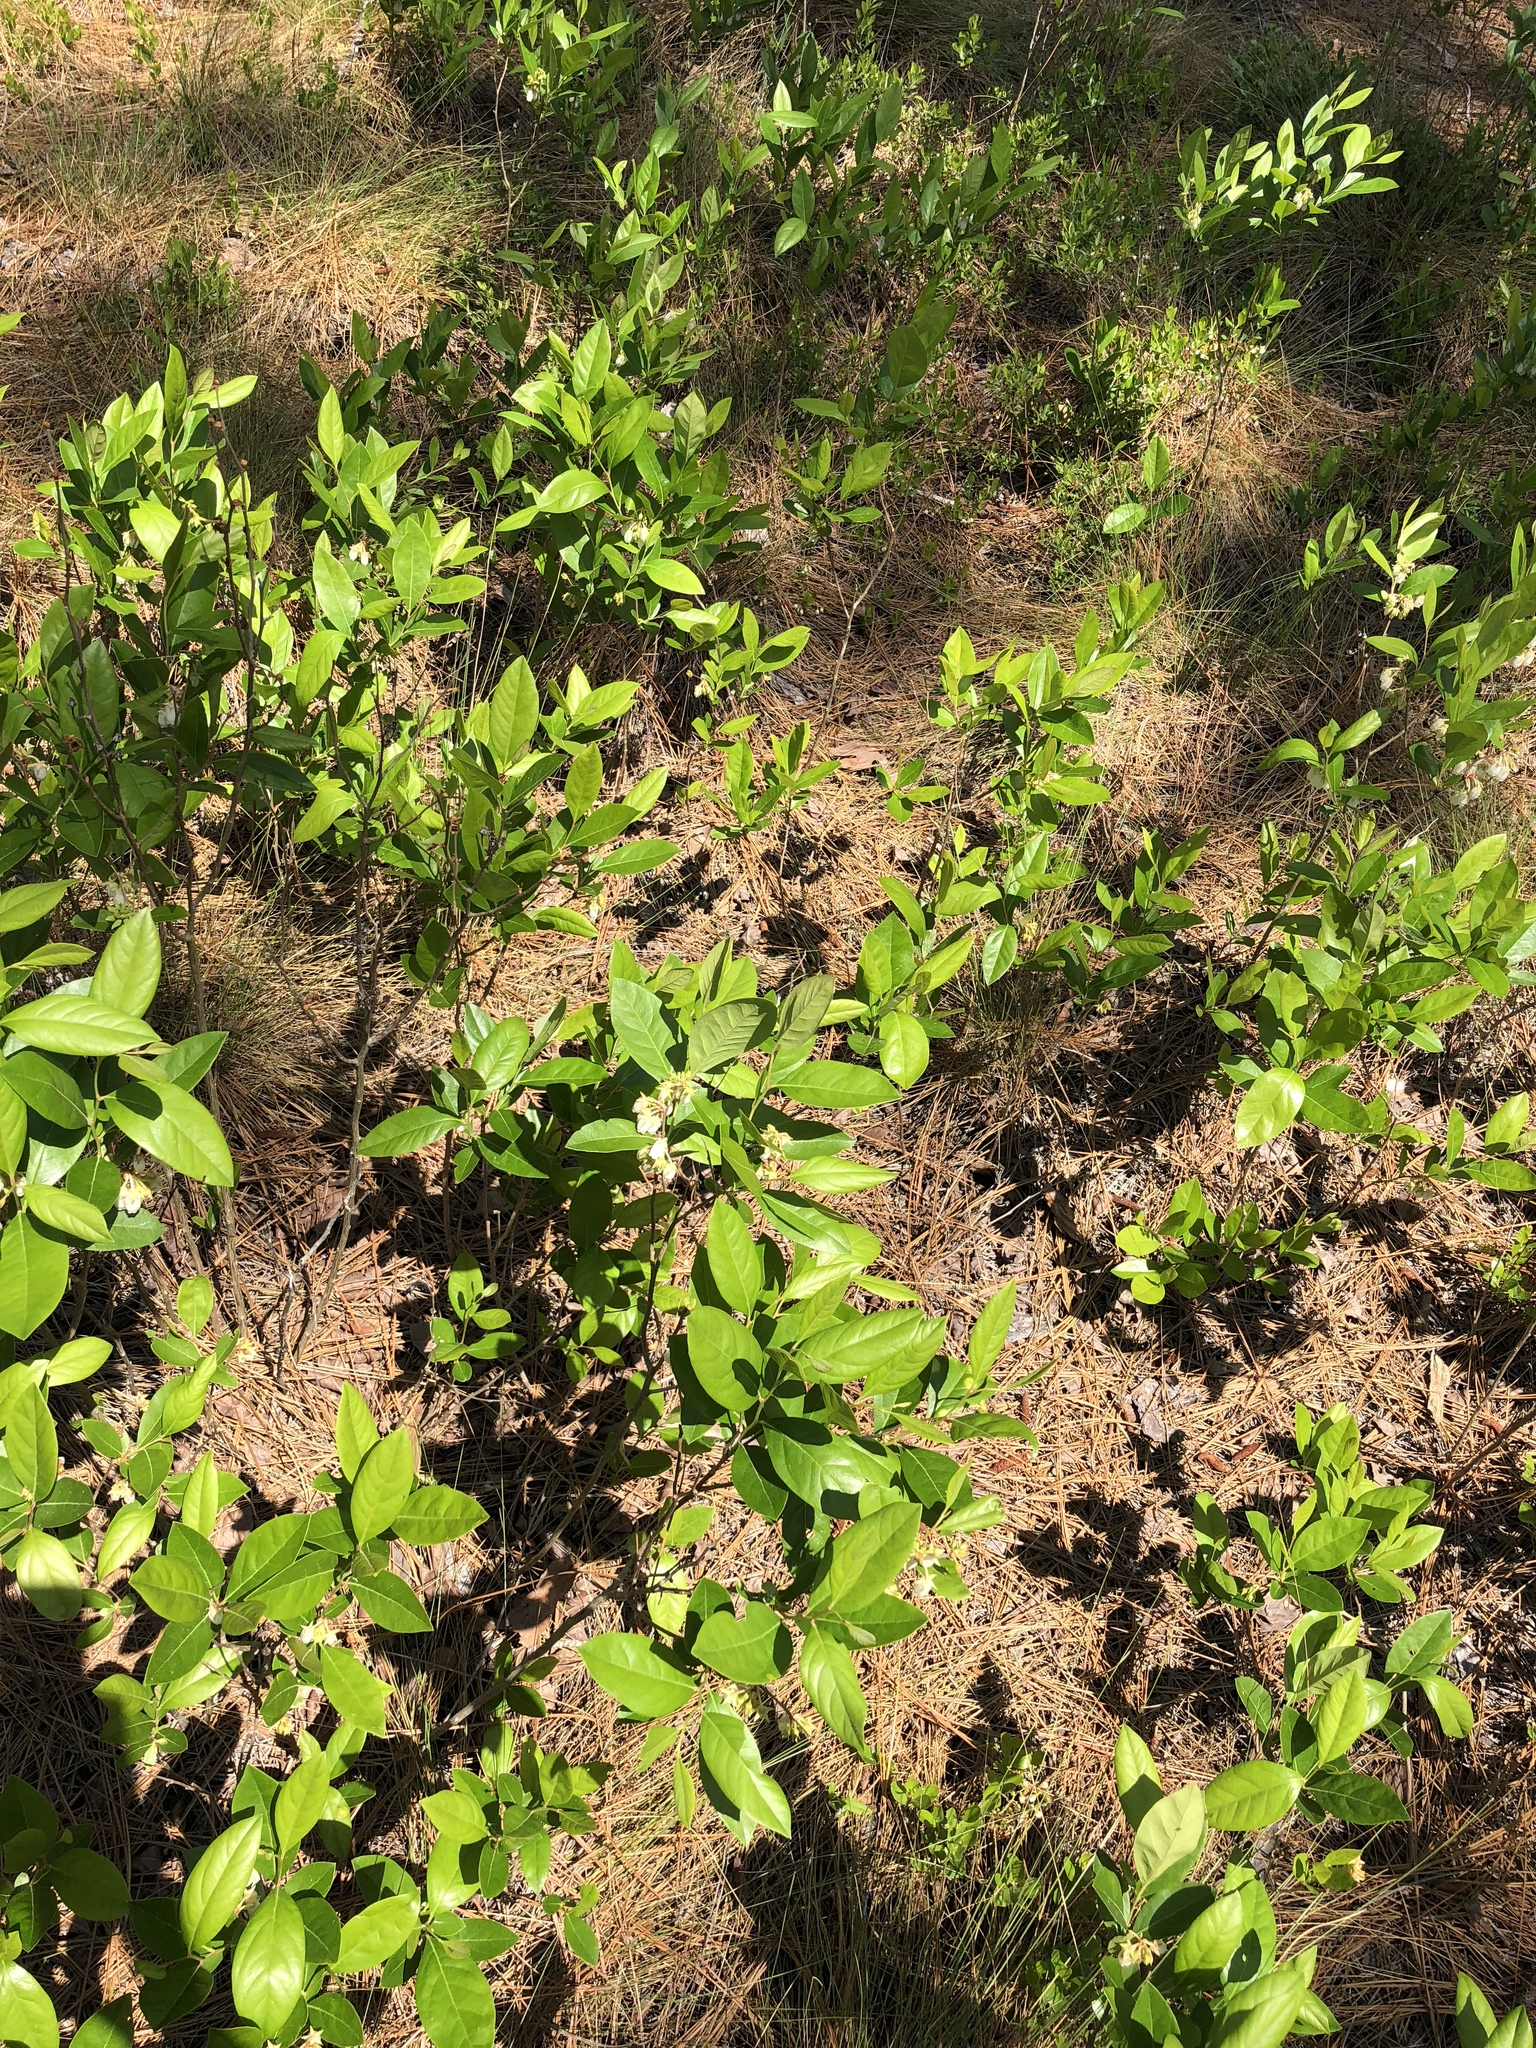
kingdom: Plantae
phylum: Tracheophyta
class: Magnoliopsida
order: Ericales
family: Ericaceae
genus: Lyonia
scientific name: Lyonia mariana
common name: Staggerbush
